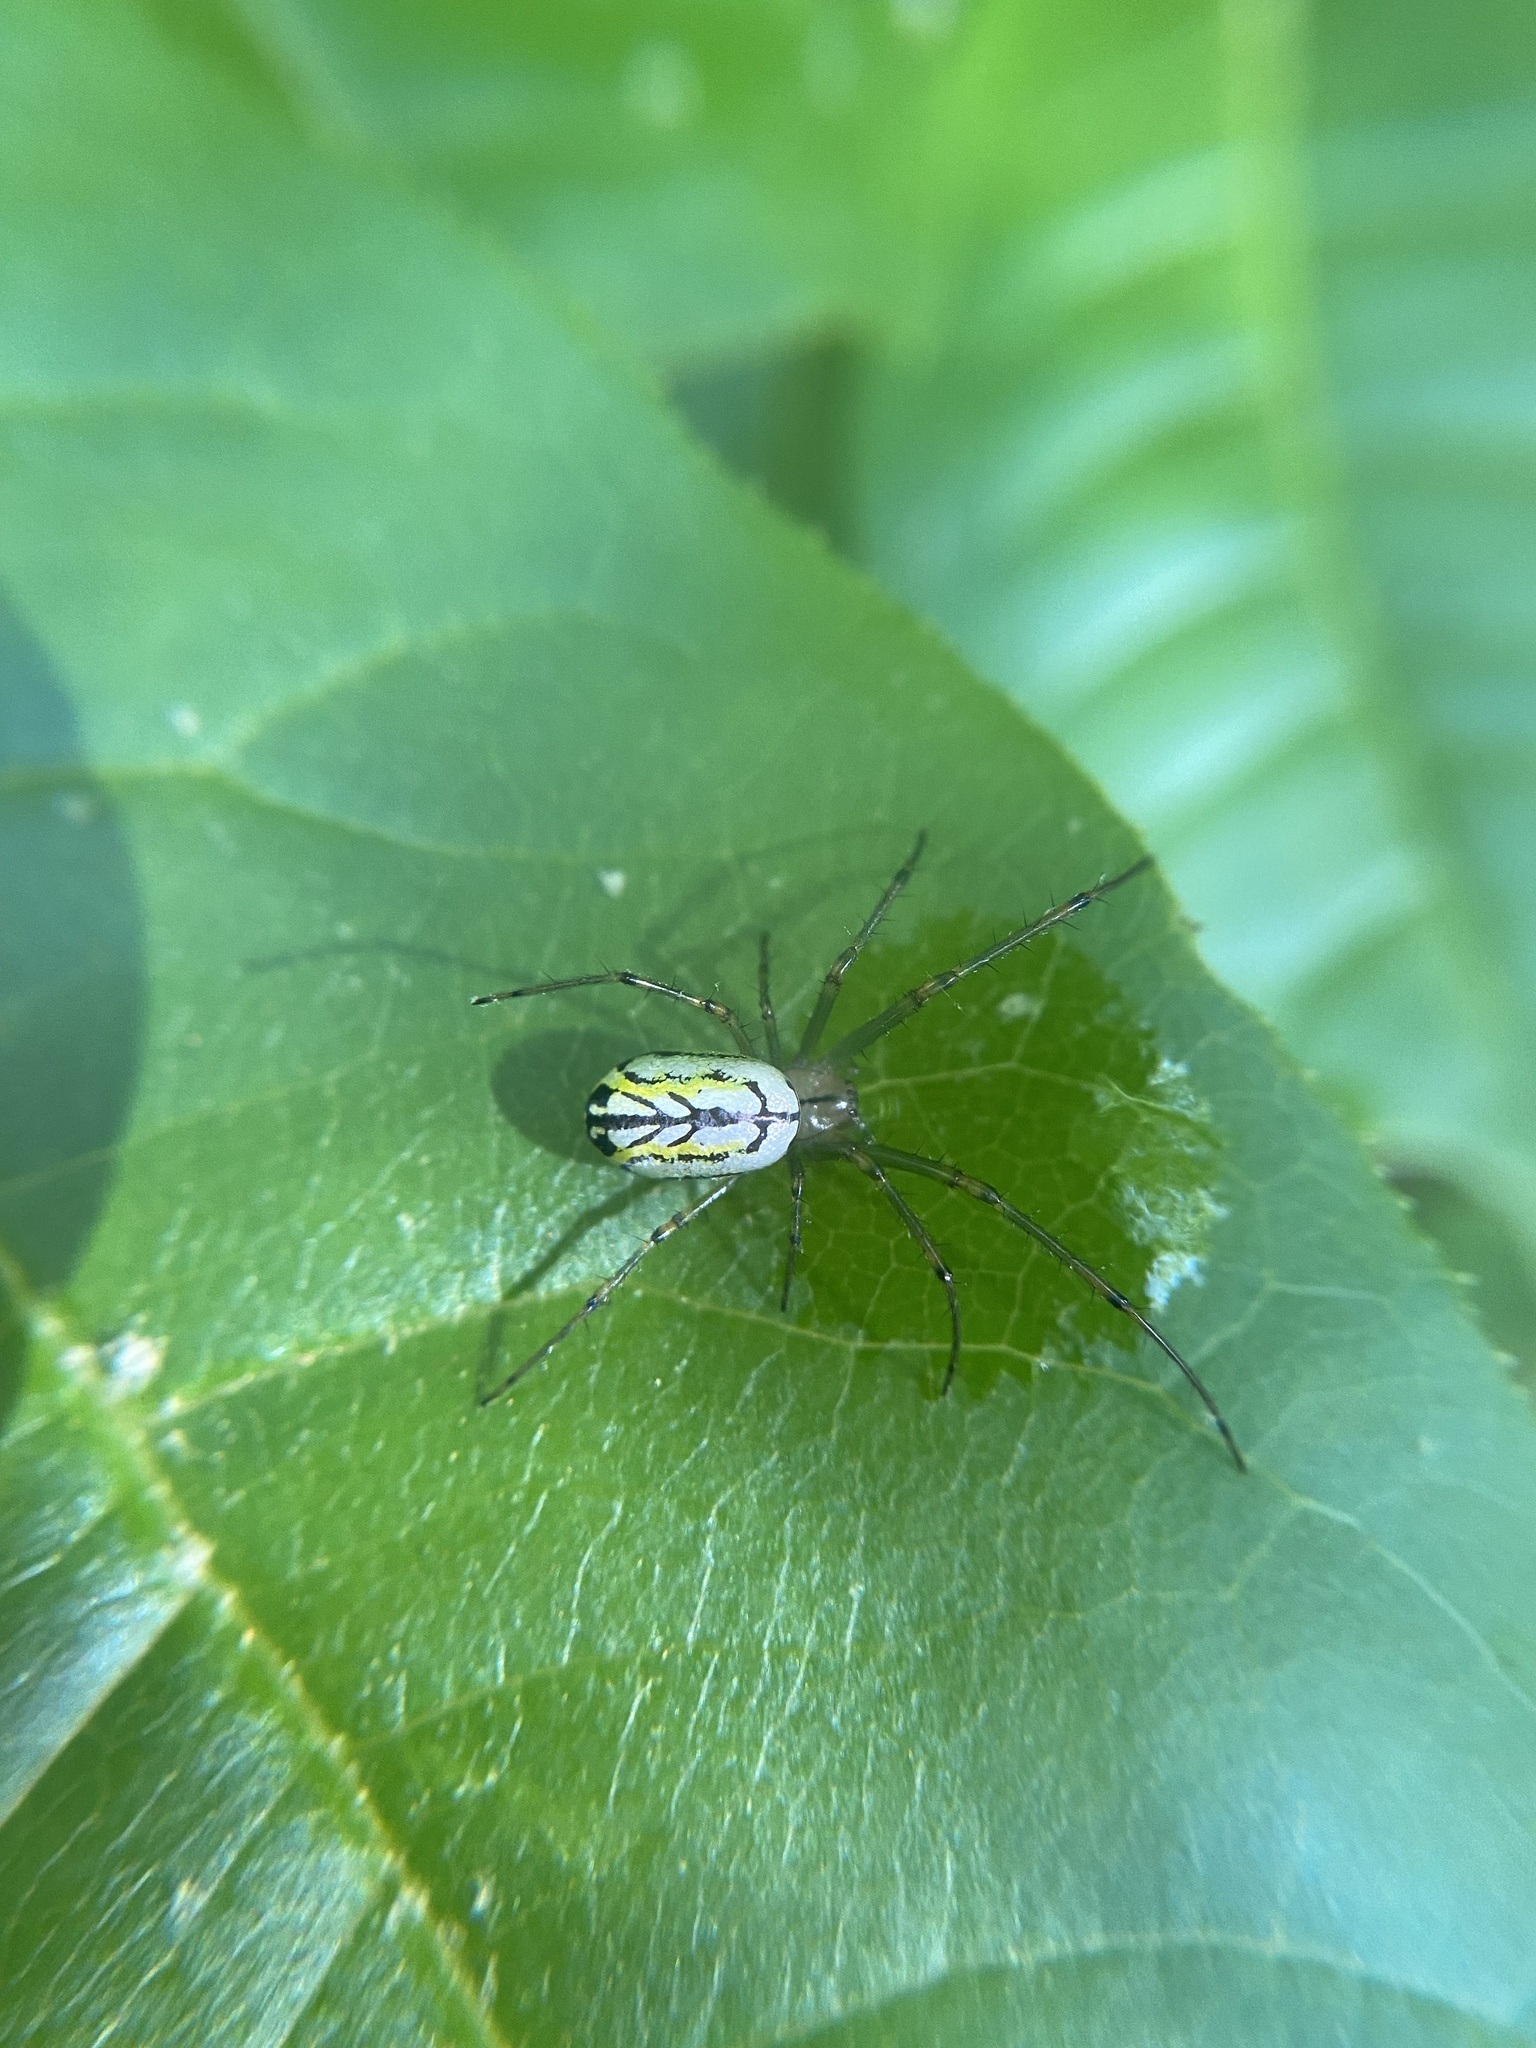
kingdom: Animalia
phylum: Arthropoda
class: Arachnida
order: Araneae
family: Tetragnathidae
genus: Leucauge
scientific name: Leucauge venusta
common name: Longjawed orb weavers
